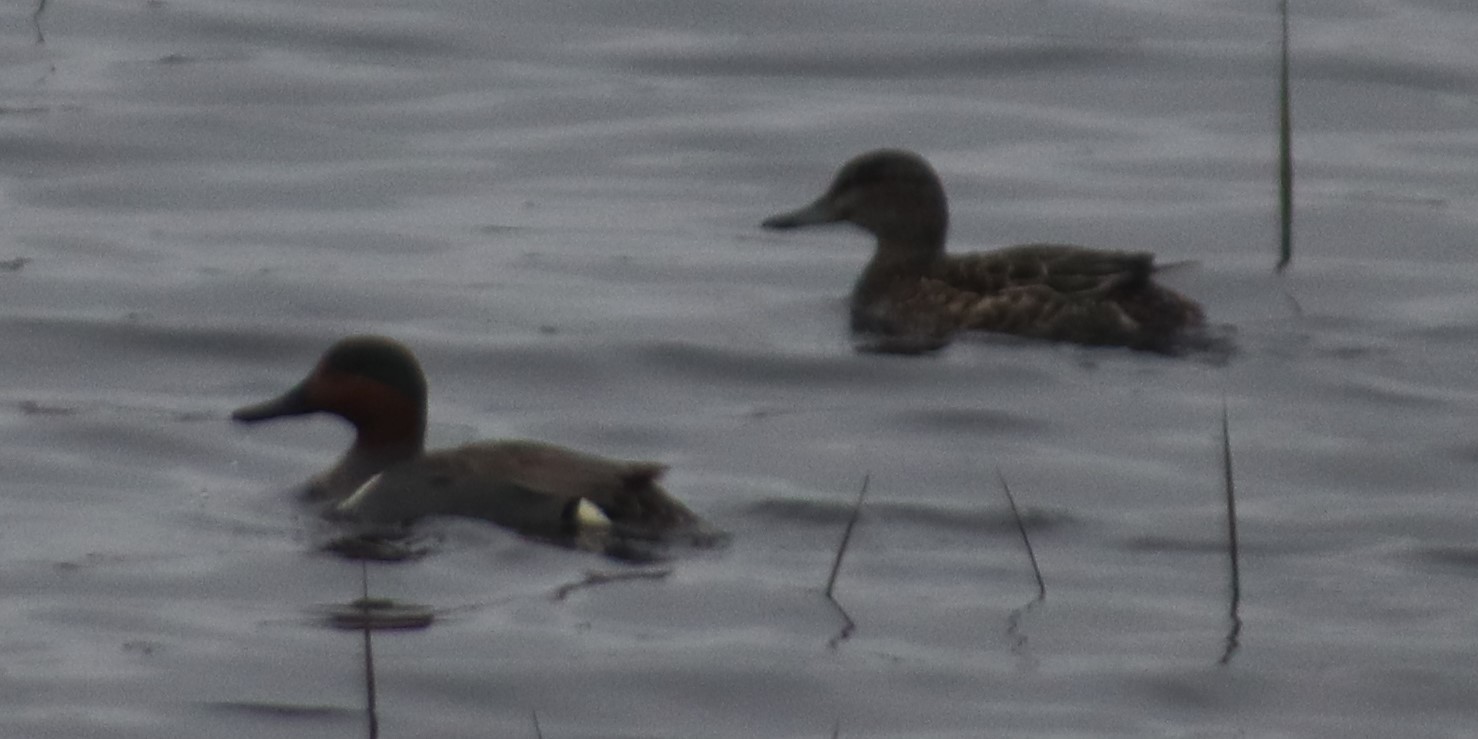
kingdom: Animalia
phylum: Chordata
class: Aves
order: Anseriformes
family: Anatidae
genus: Anas
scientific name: Anas crecca
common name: Eurasian teal
